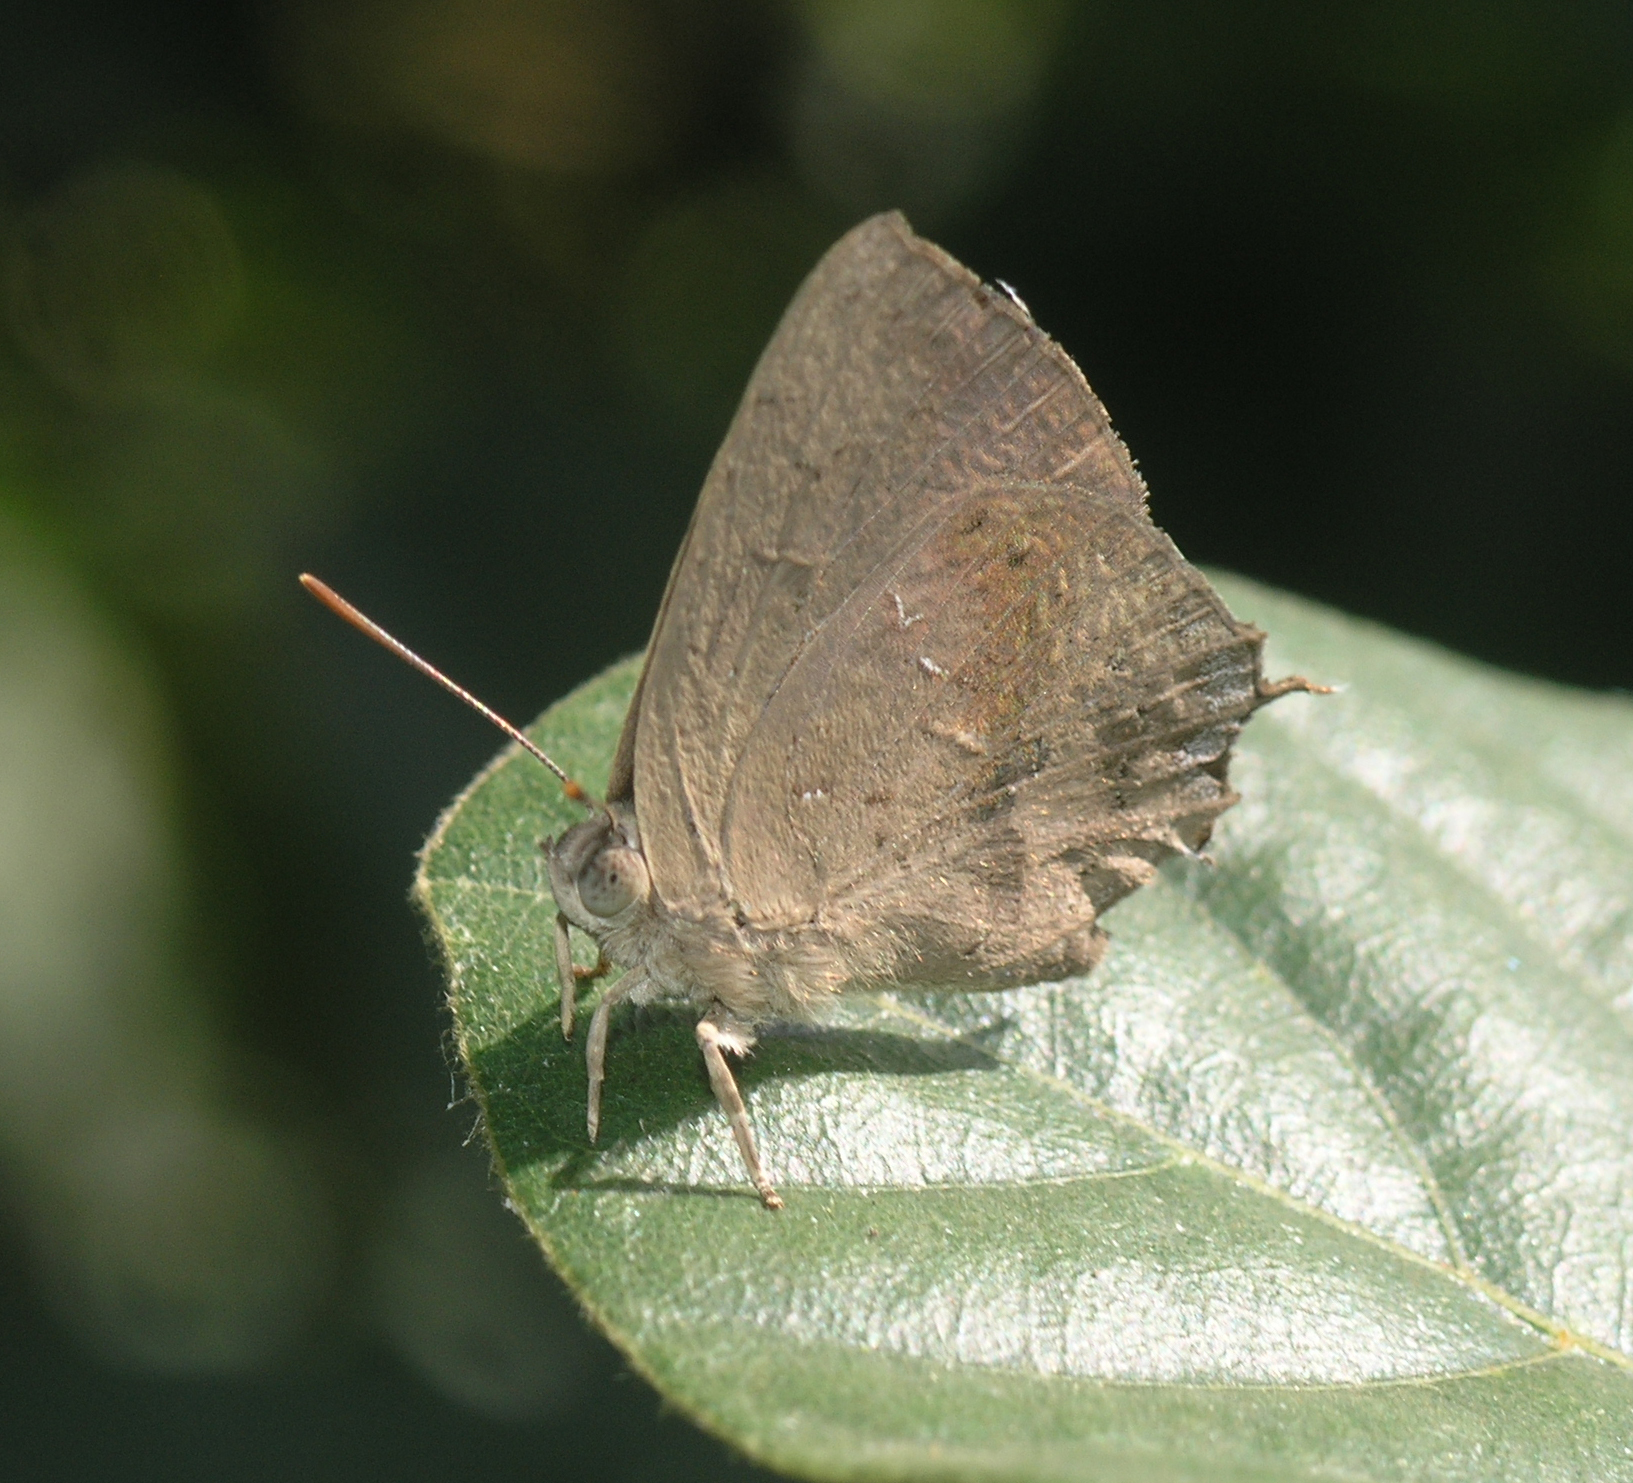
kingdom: Animalia
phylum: Arthropoda
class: Insecta
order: Lepidoptera
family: Lycaenidae
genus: Surendra
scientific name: Surendra quercetorum
